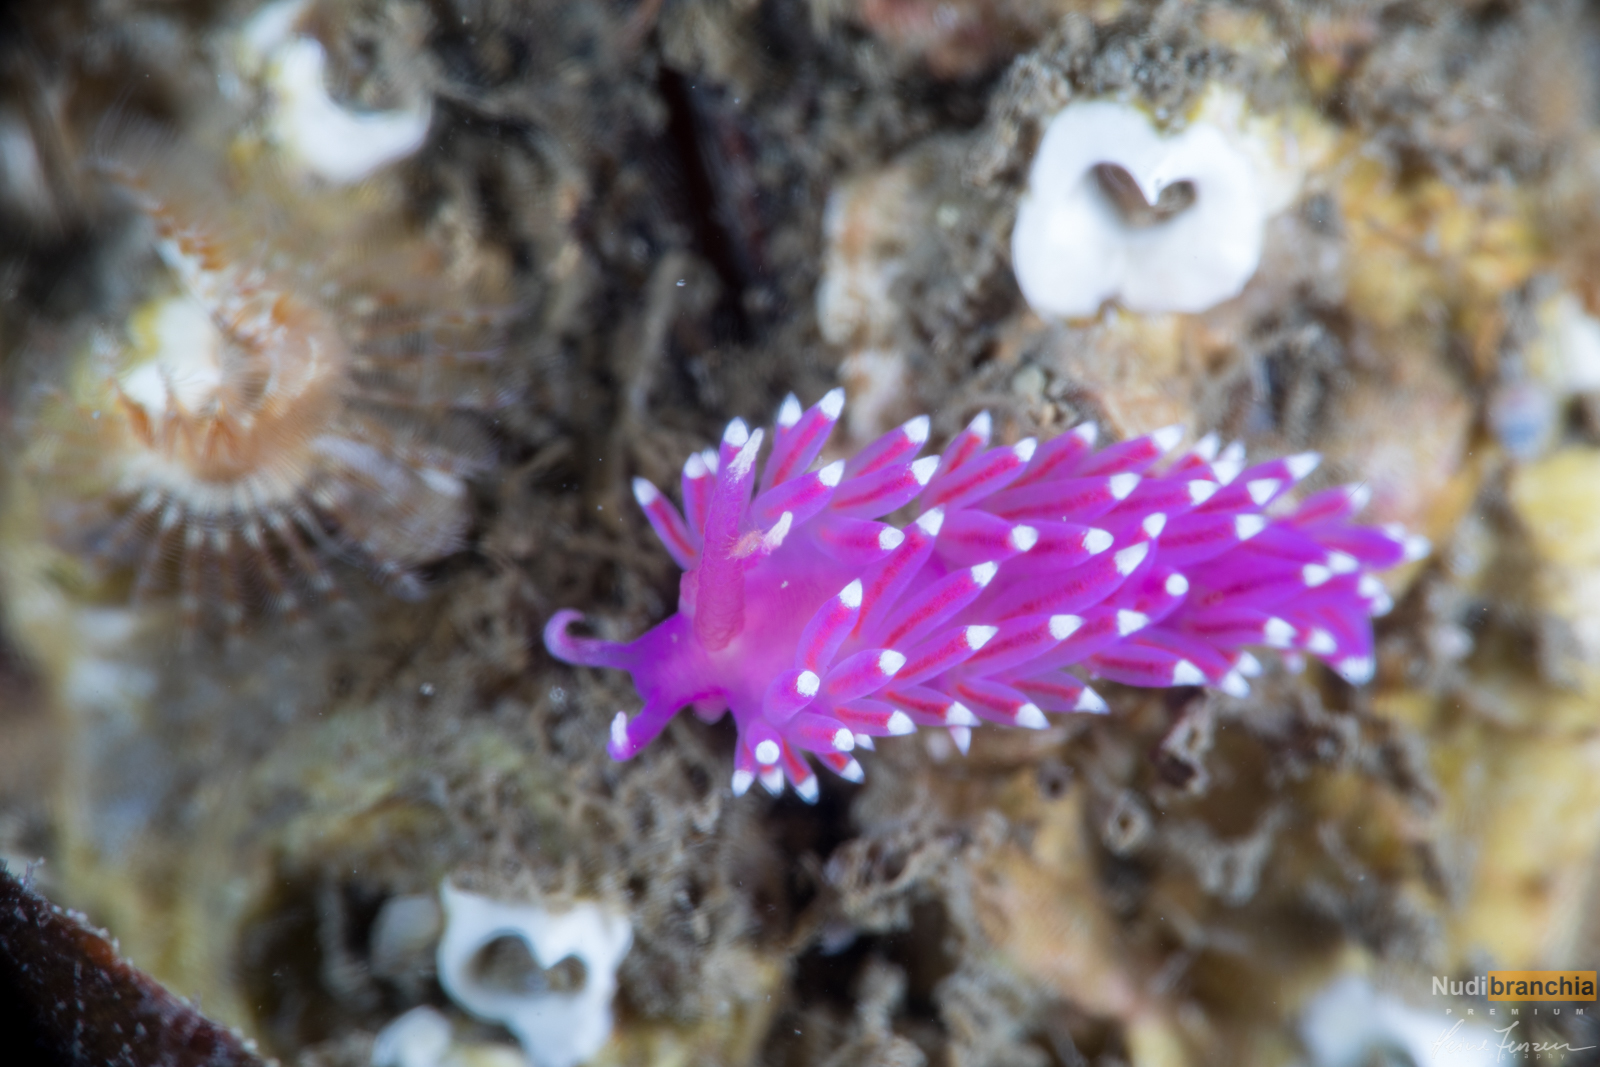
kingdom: Animalia
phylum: Mollusca
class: Gastropoda
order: Nudibranchia
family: Flabellinidae
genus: Edmundsella
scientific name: Edmundsella pedata
